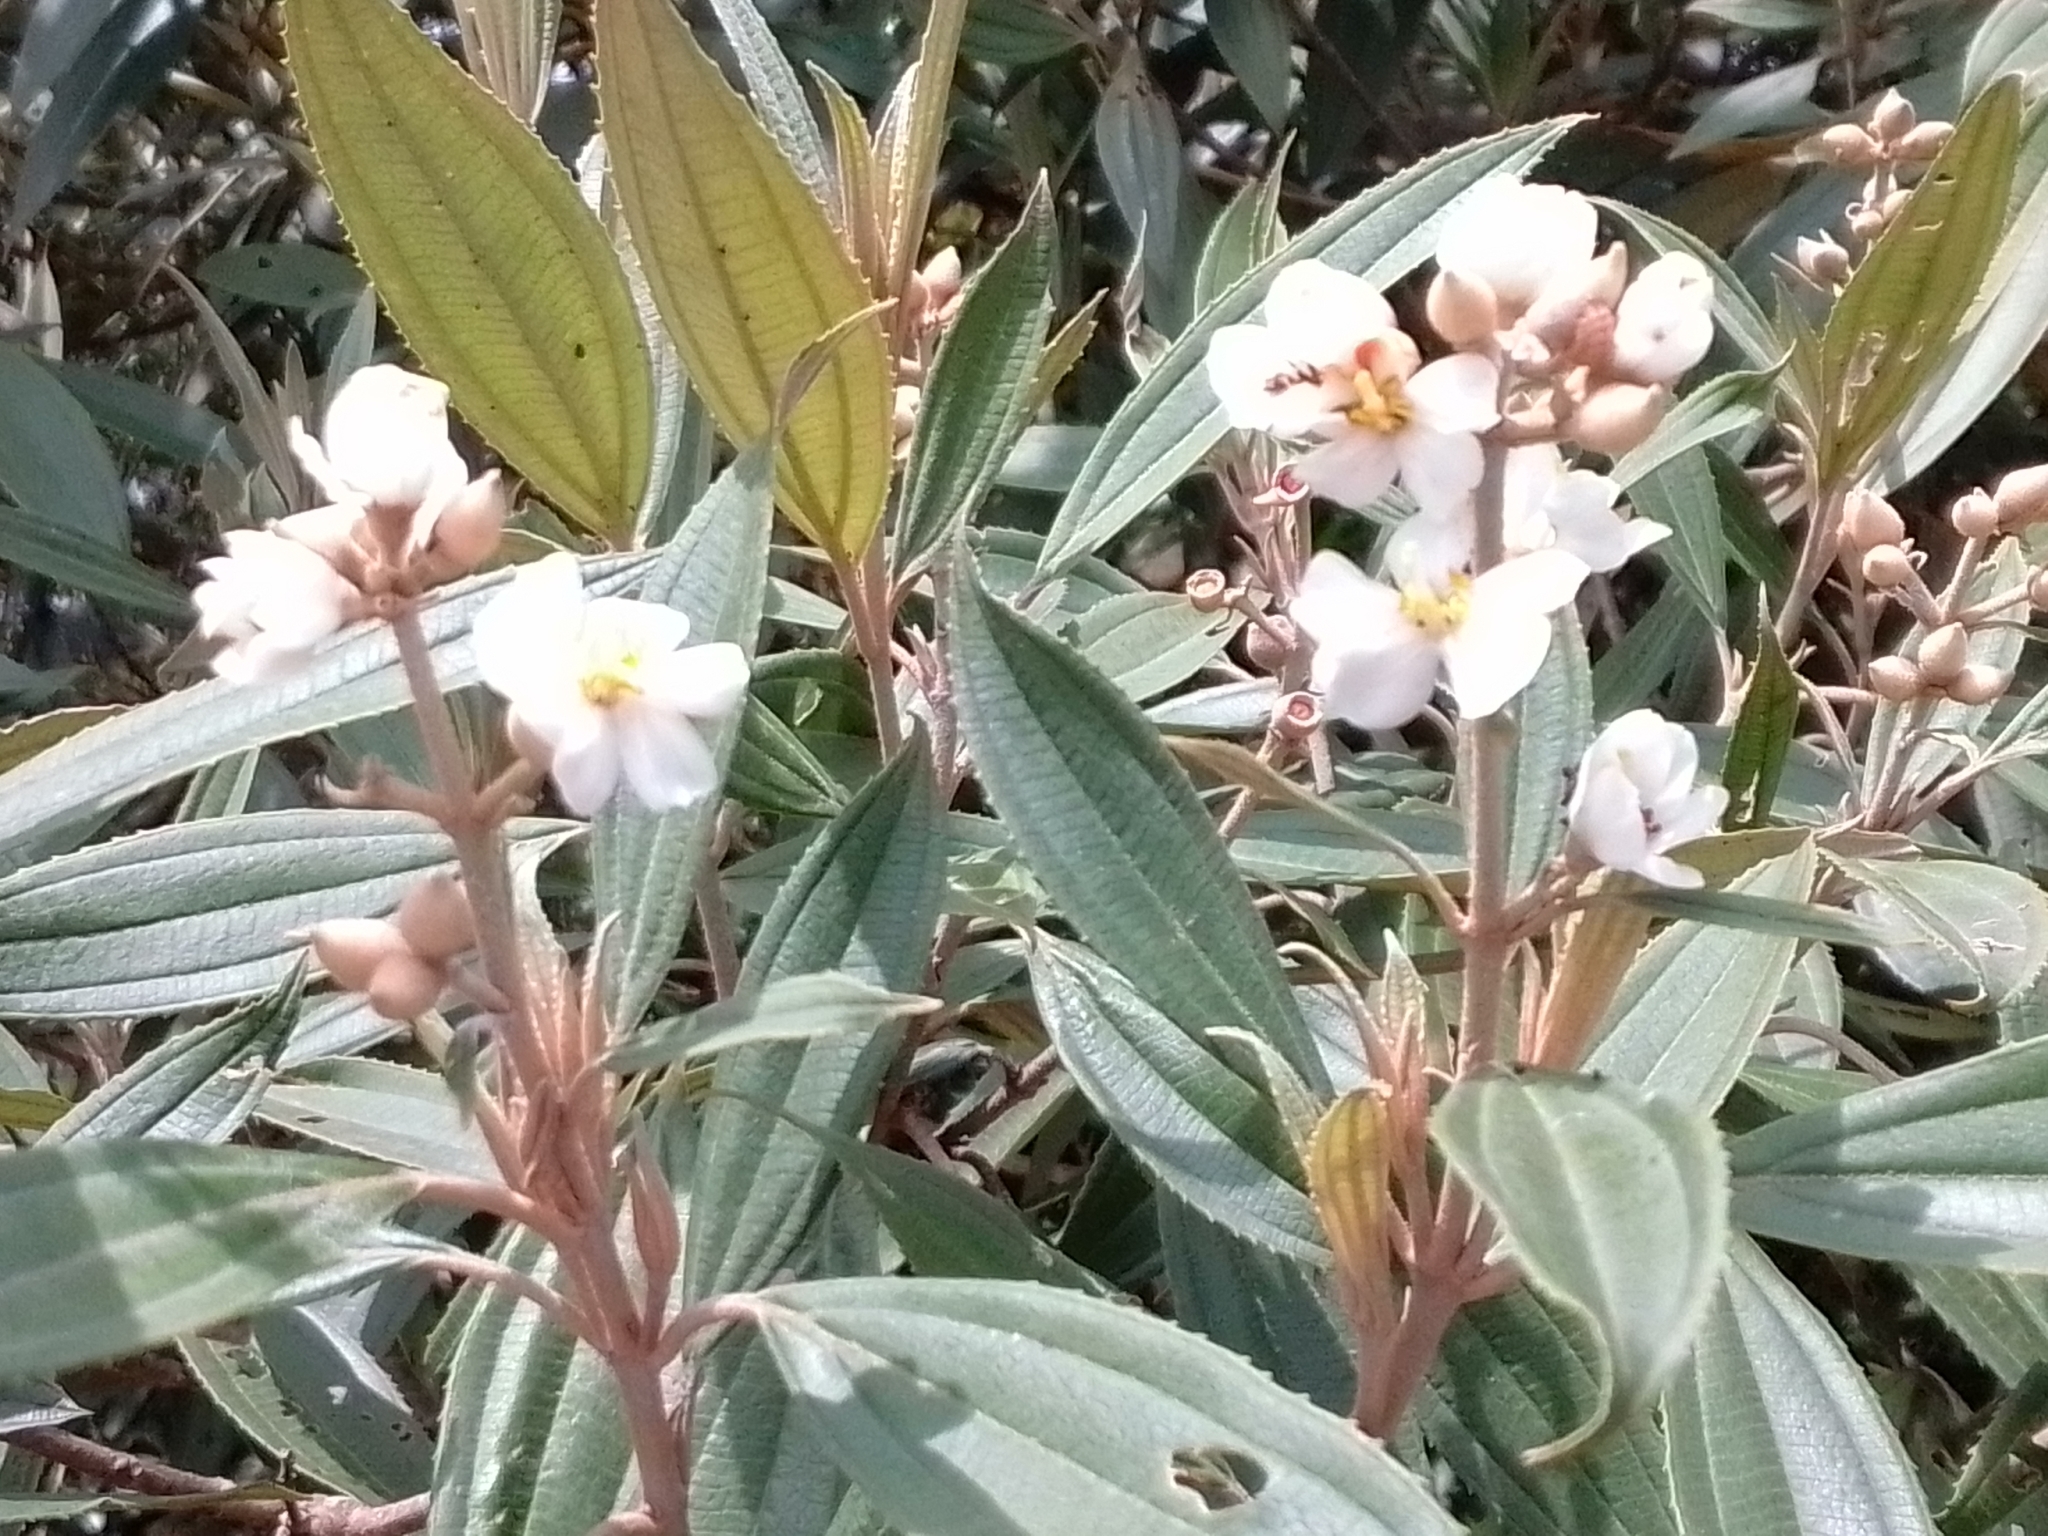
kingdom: Plantae
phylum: Tracheophyta
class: Magnoliopsida
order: Myrtales
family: Melastomataceae
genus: Miconia
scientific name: Miconia xalapensis
